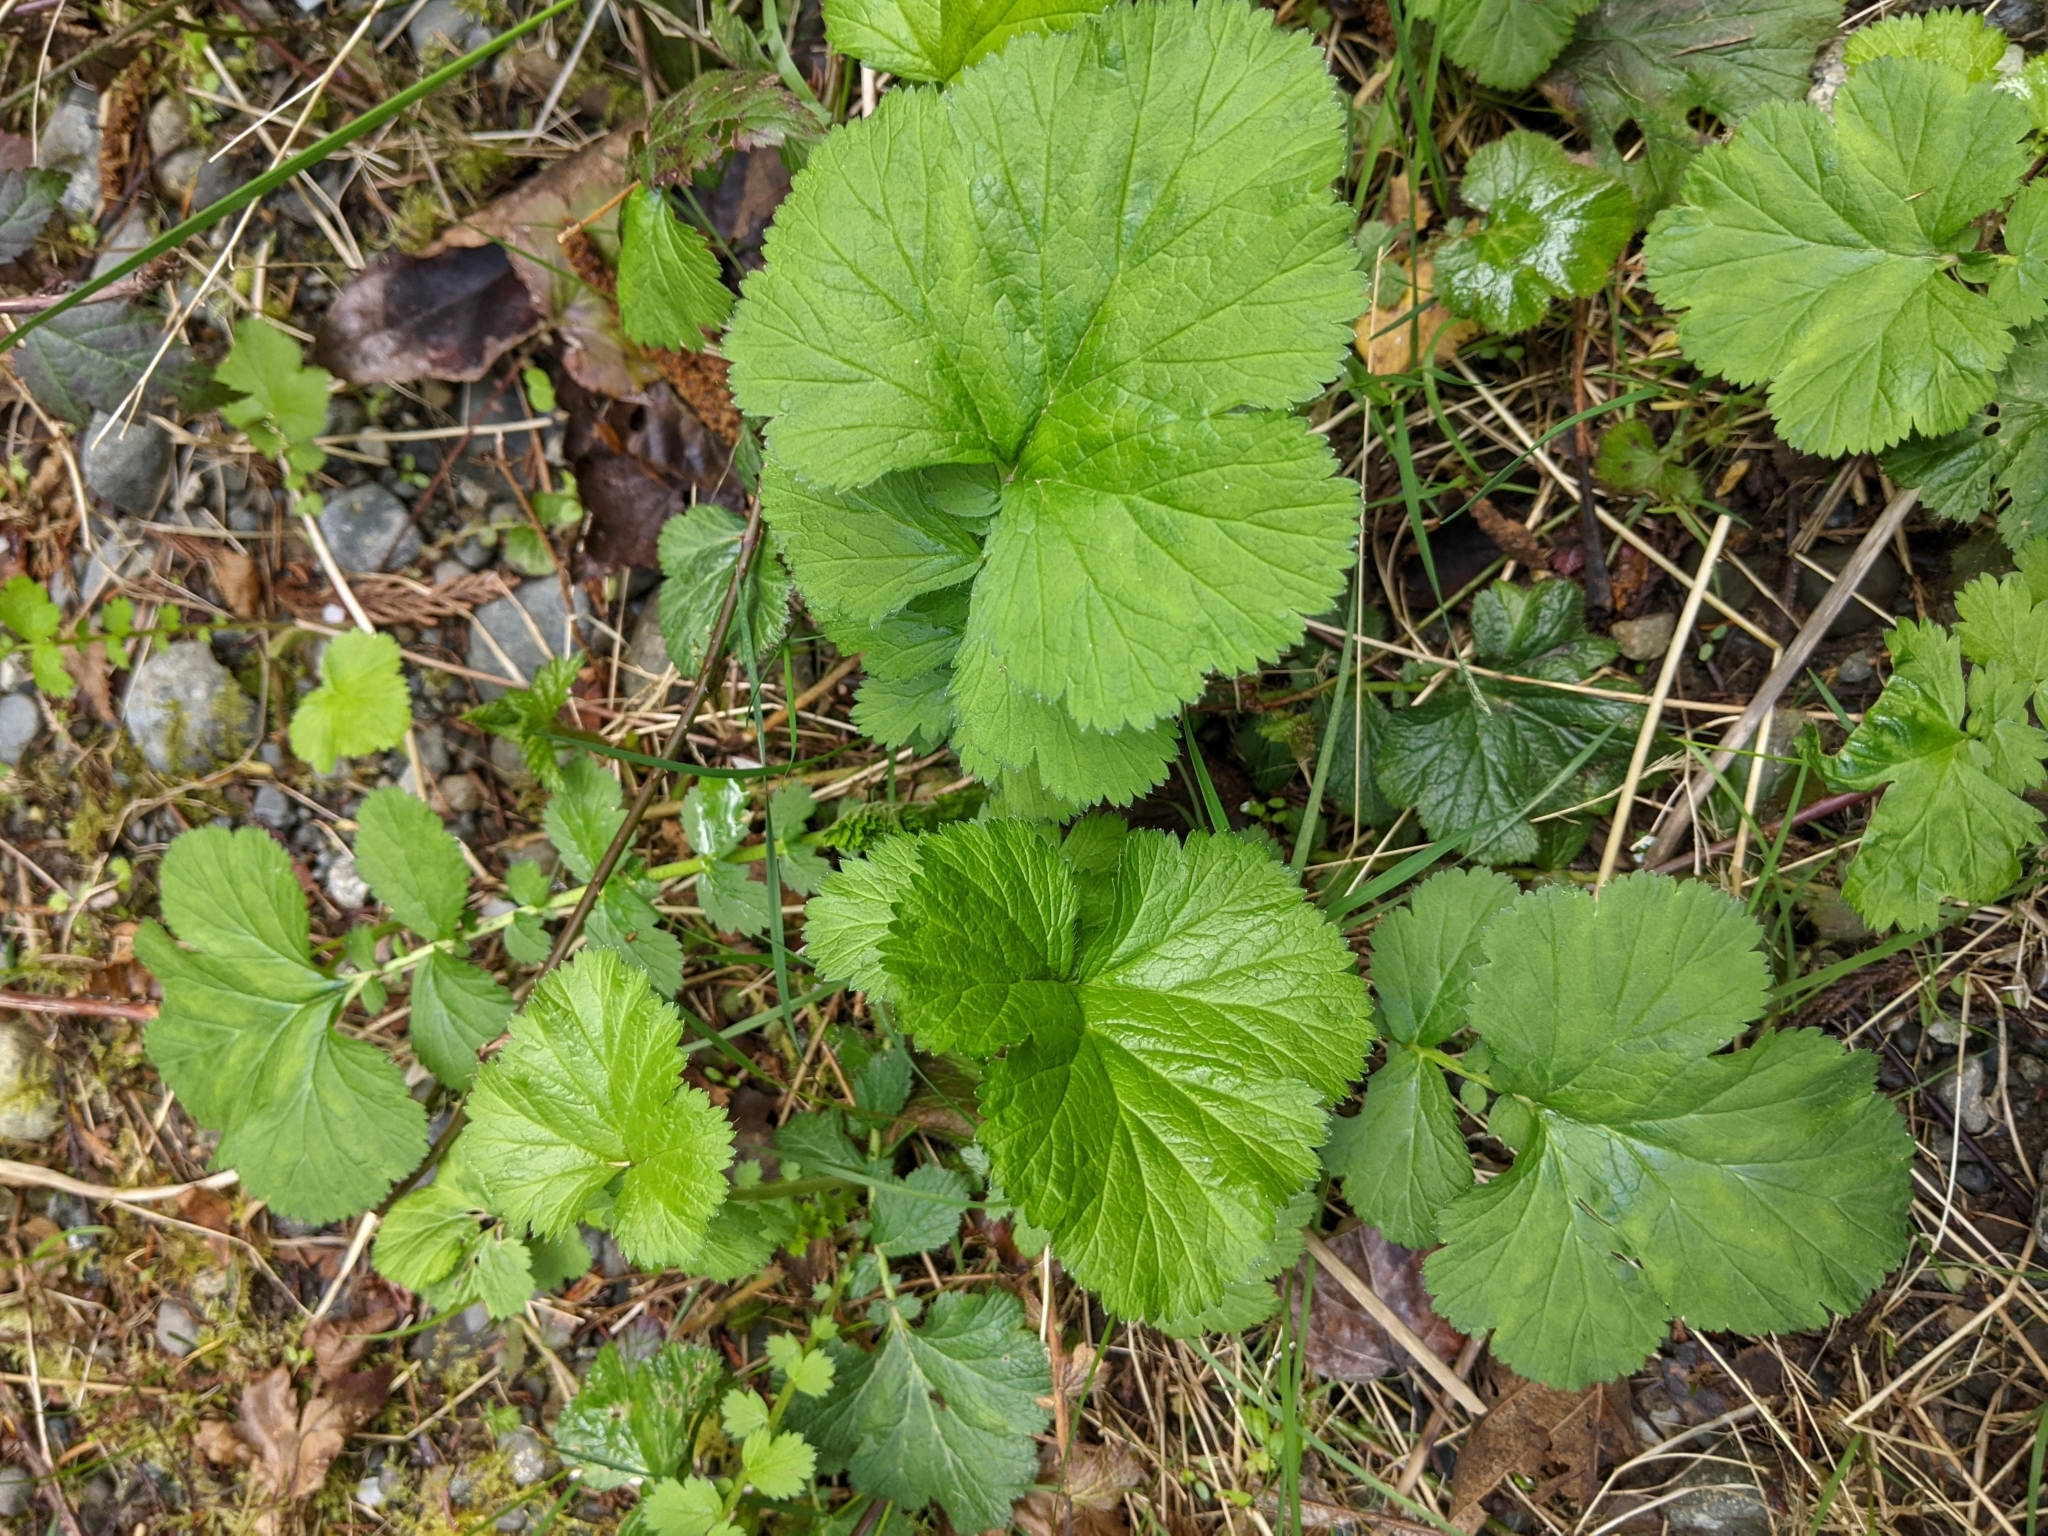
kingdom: Plantae
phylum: Tracheophyta
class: Magnoliopsida
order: Rosales
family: Rosaceae
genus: Geum
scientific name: Geum macrophyllum
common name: Large-leaved avens
